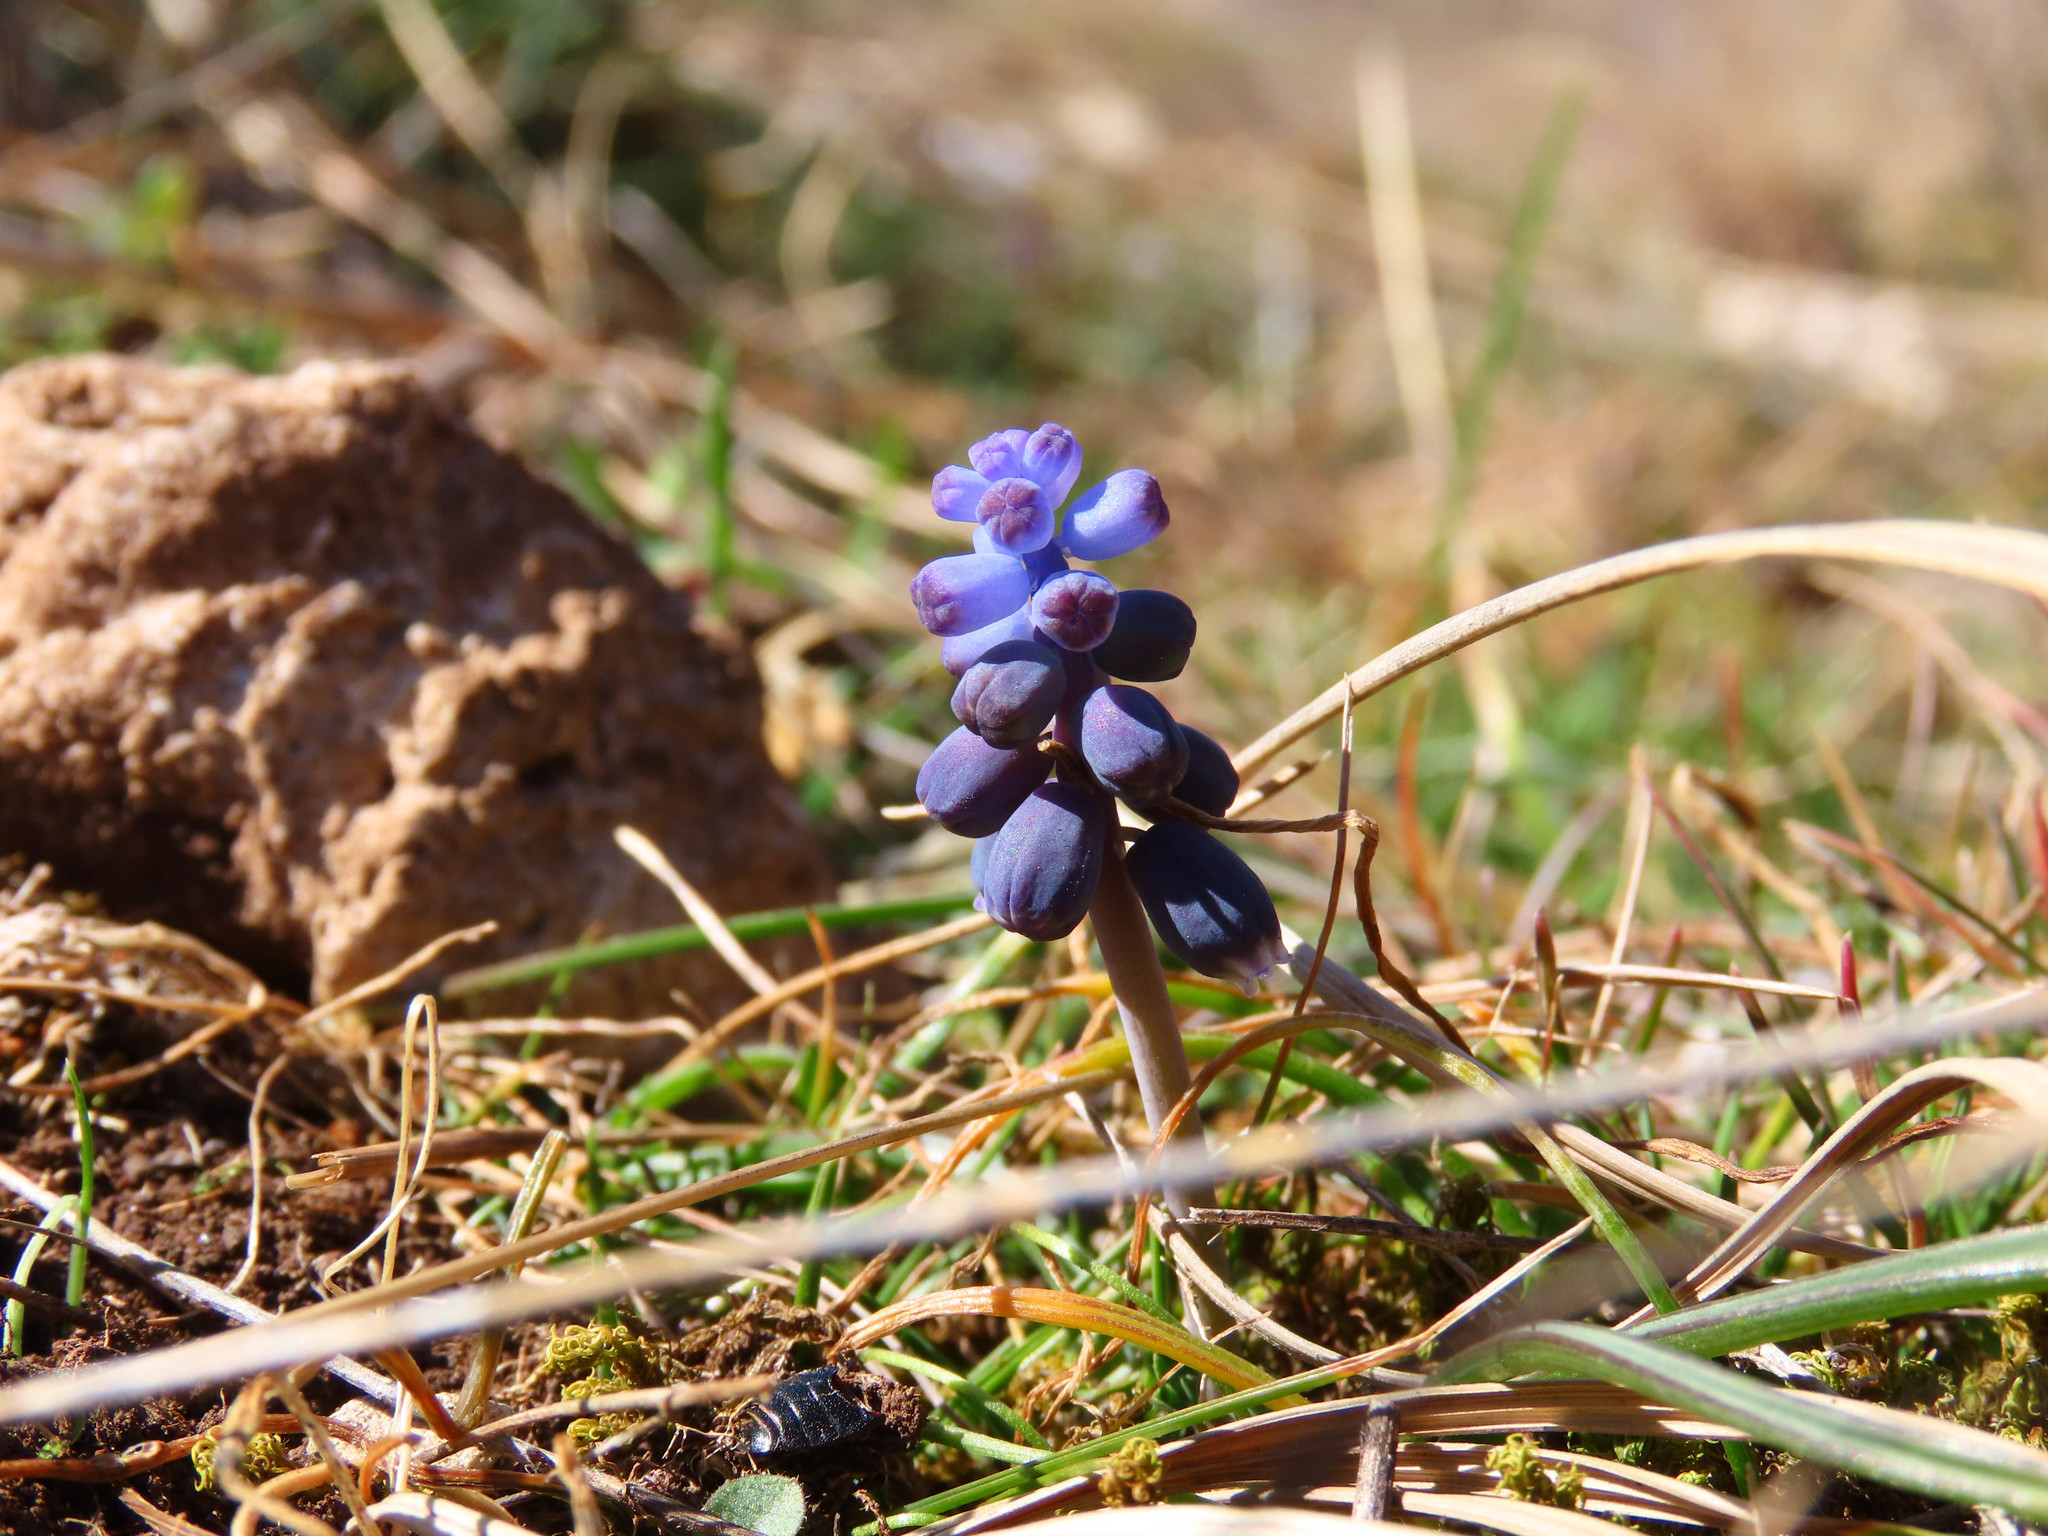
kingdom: Plantae
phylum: Tracheophyta
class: Liliopsida
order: Asparagales
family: Asparagaceae
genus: Muscari
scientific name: Muscari neglectum
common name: Grape-hyacinth
